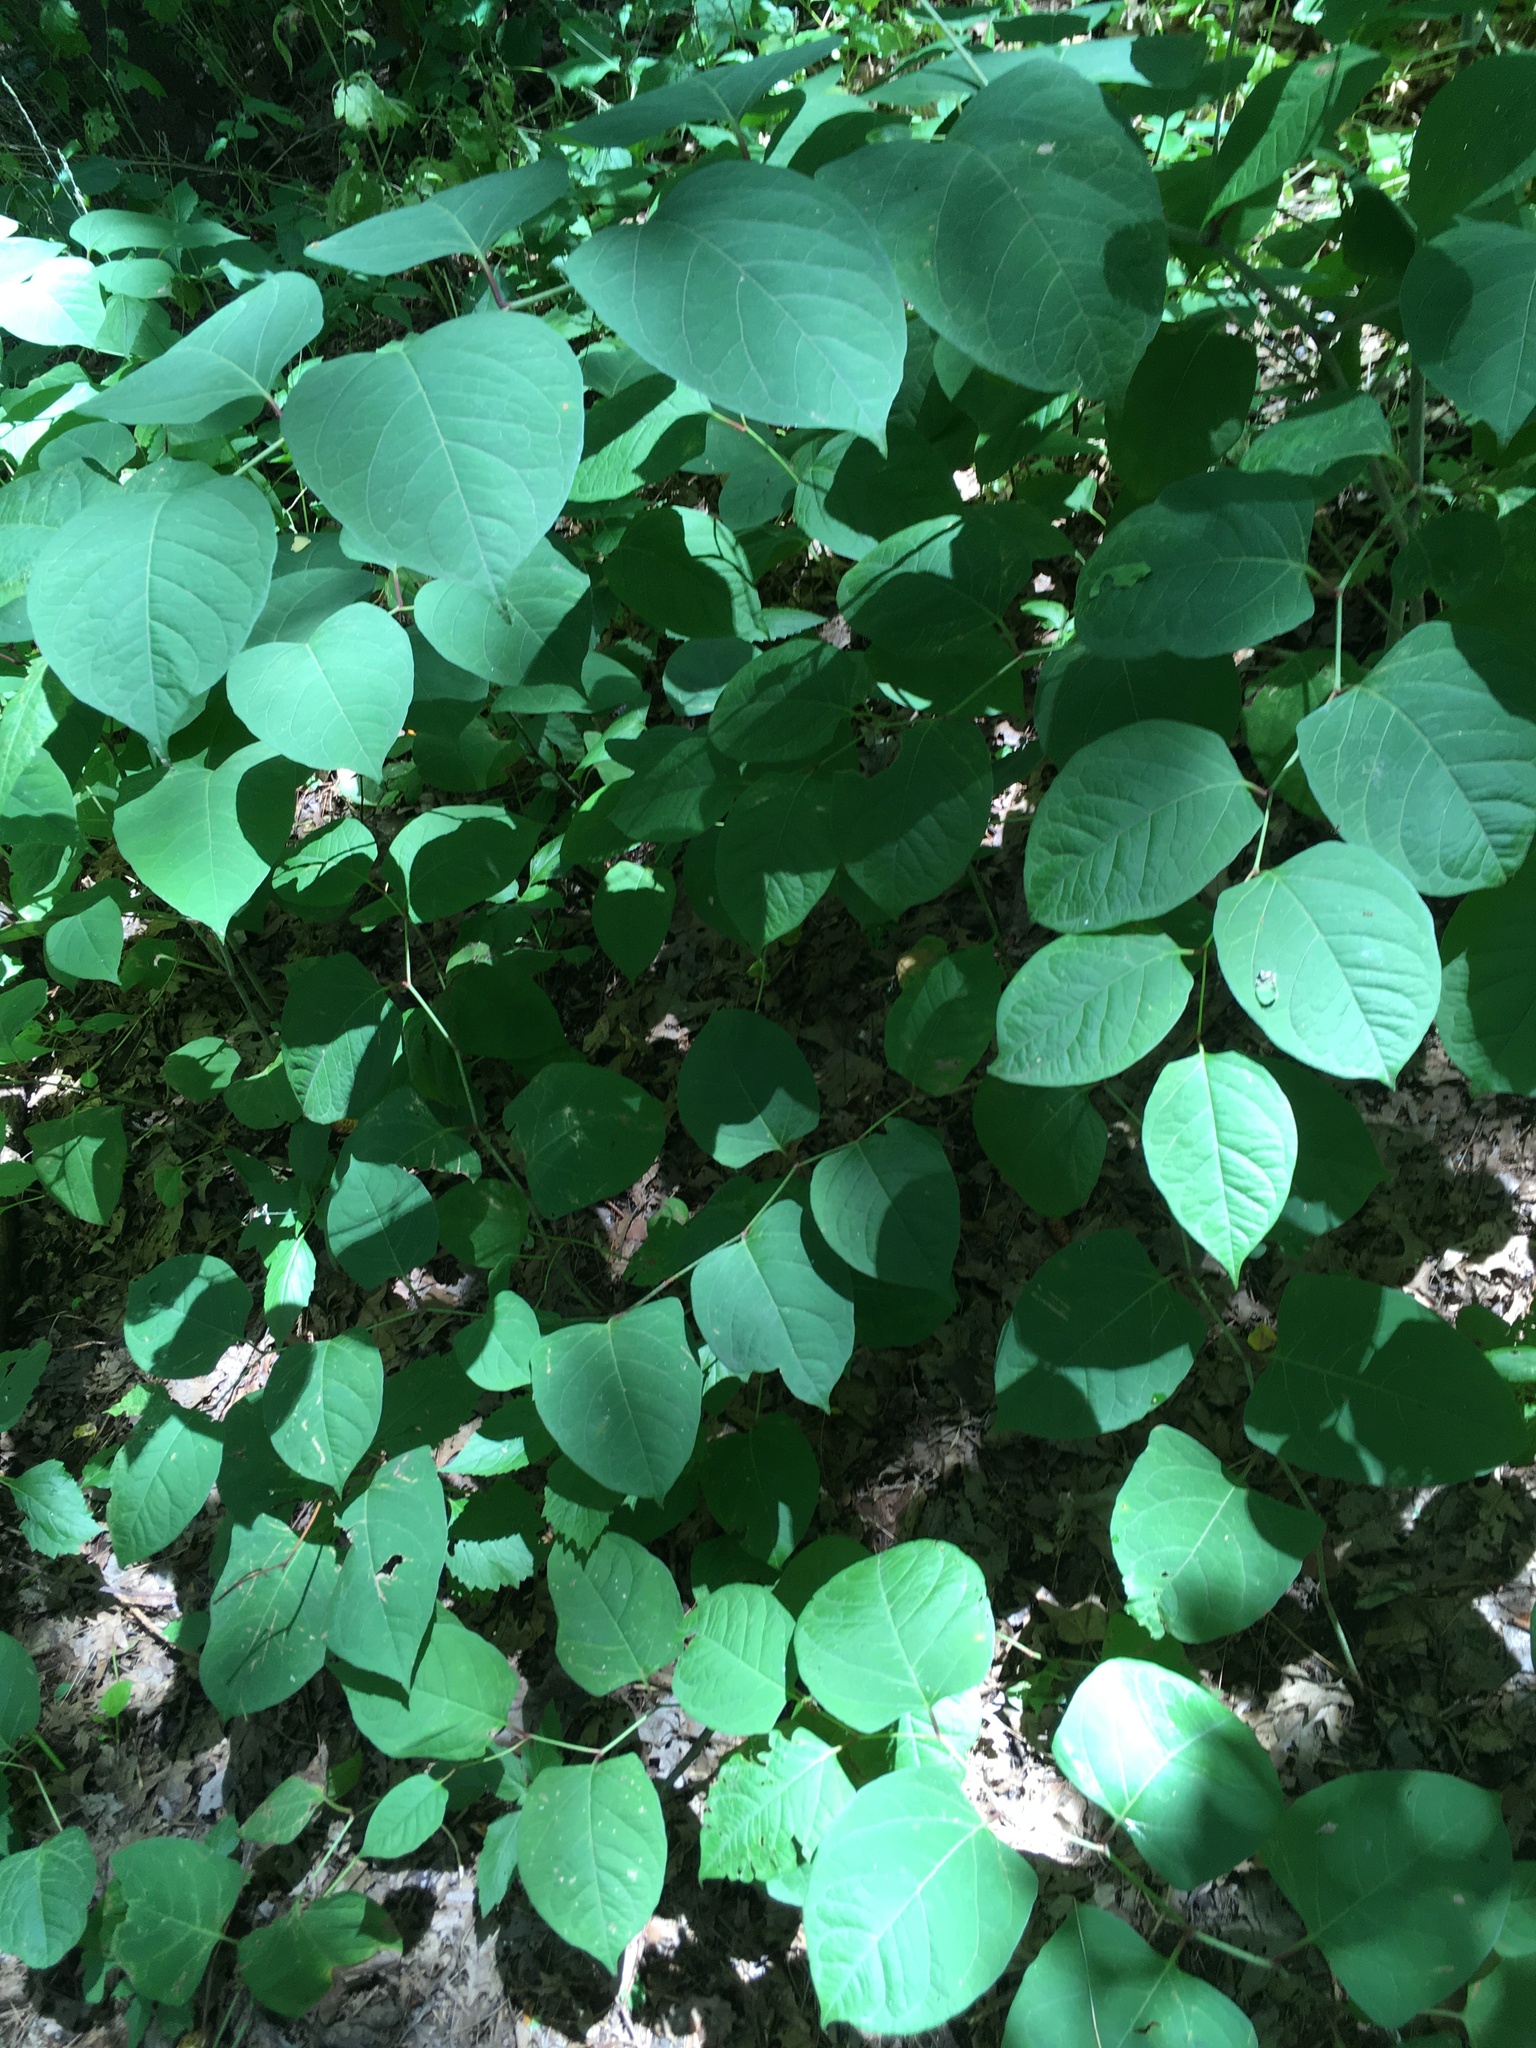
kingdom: Plantae
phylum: Tracheophyta
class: Magnoliopsida
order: Caryophyllales
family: Polygonaceae
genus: Reynoutria
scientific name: Reynoutria japonica
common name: Japanese knotweed
